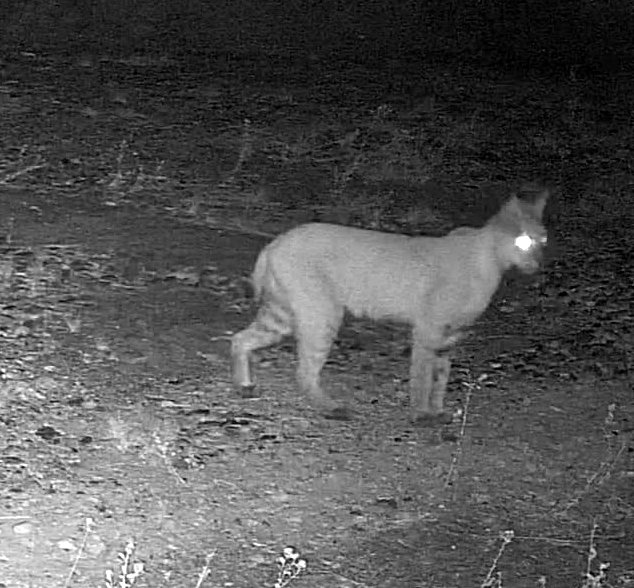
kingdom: Animalia
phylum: Chordata
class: Mammalia
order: Carnivora
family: Felidae
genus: Lynx
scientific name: Lynx rufus
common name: Bobcat
